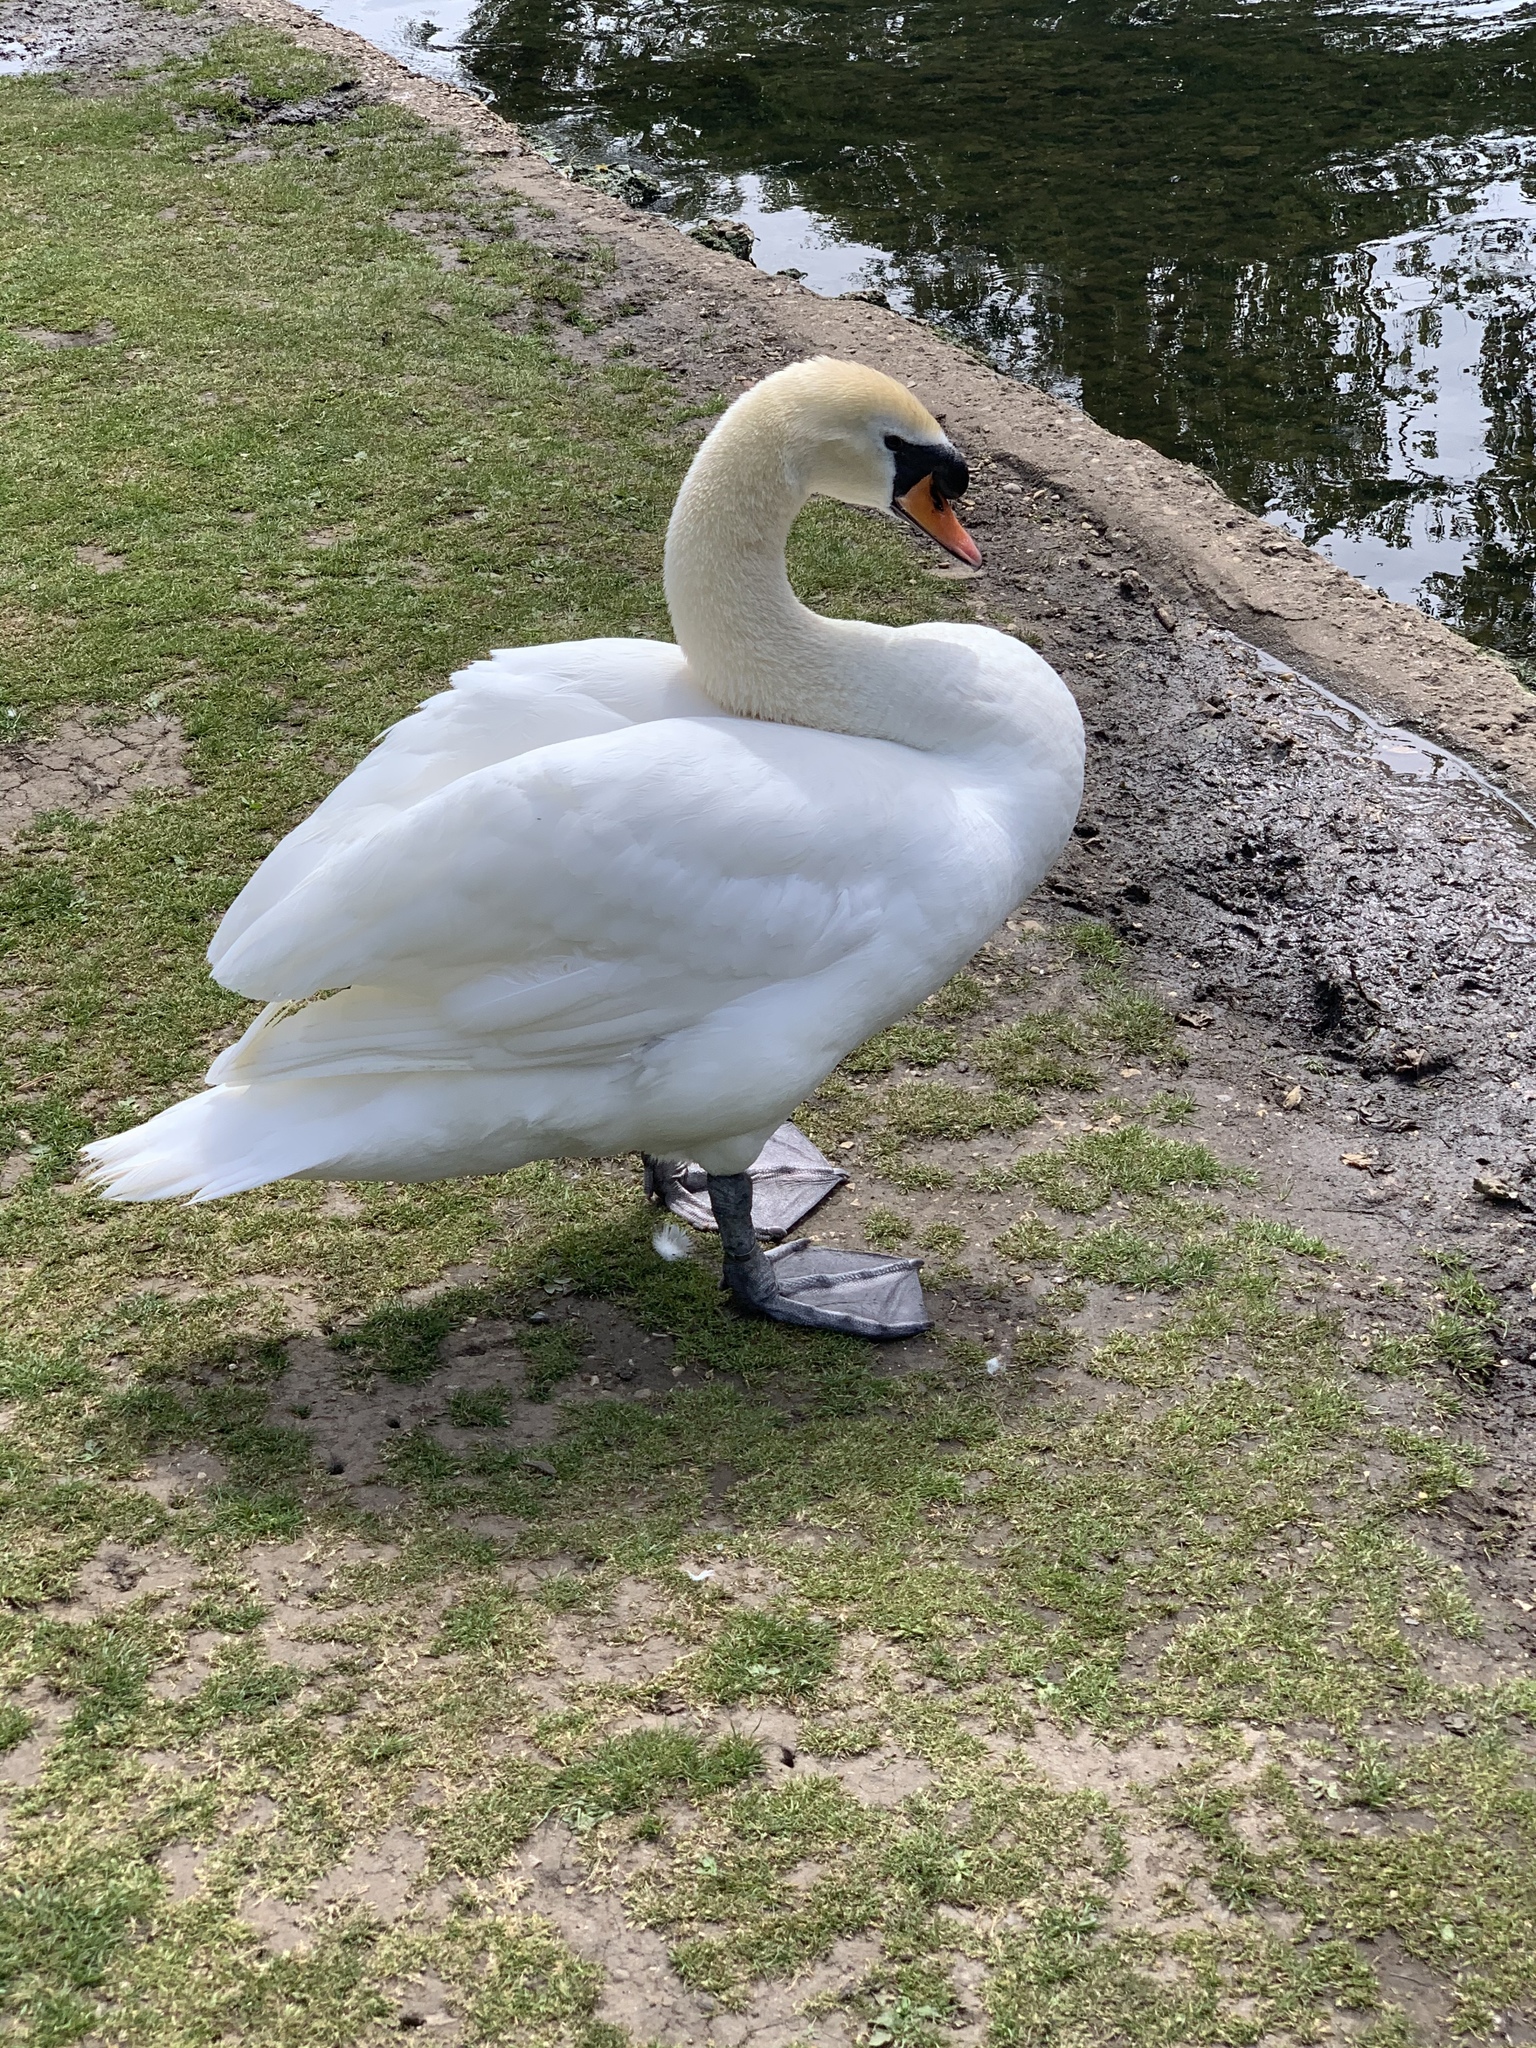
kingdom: Animalia
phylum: Chordata
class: Aves
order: Anseriformes
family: Anatidae
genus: Cygnus
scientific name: Cygnus olor
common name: Mute swan
